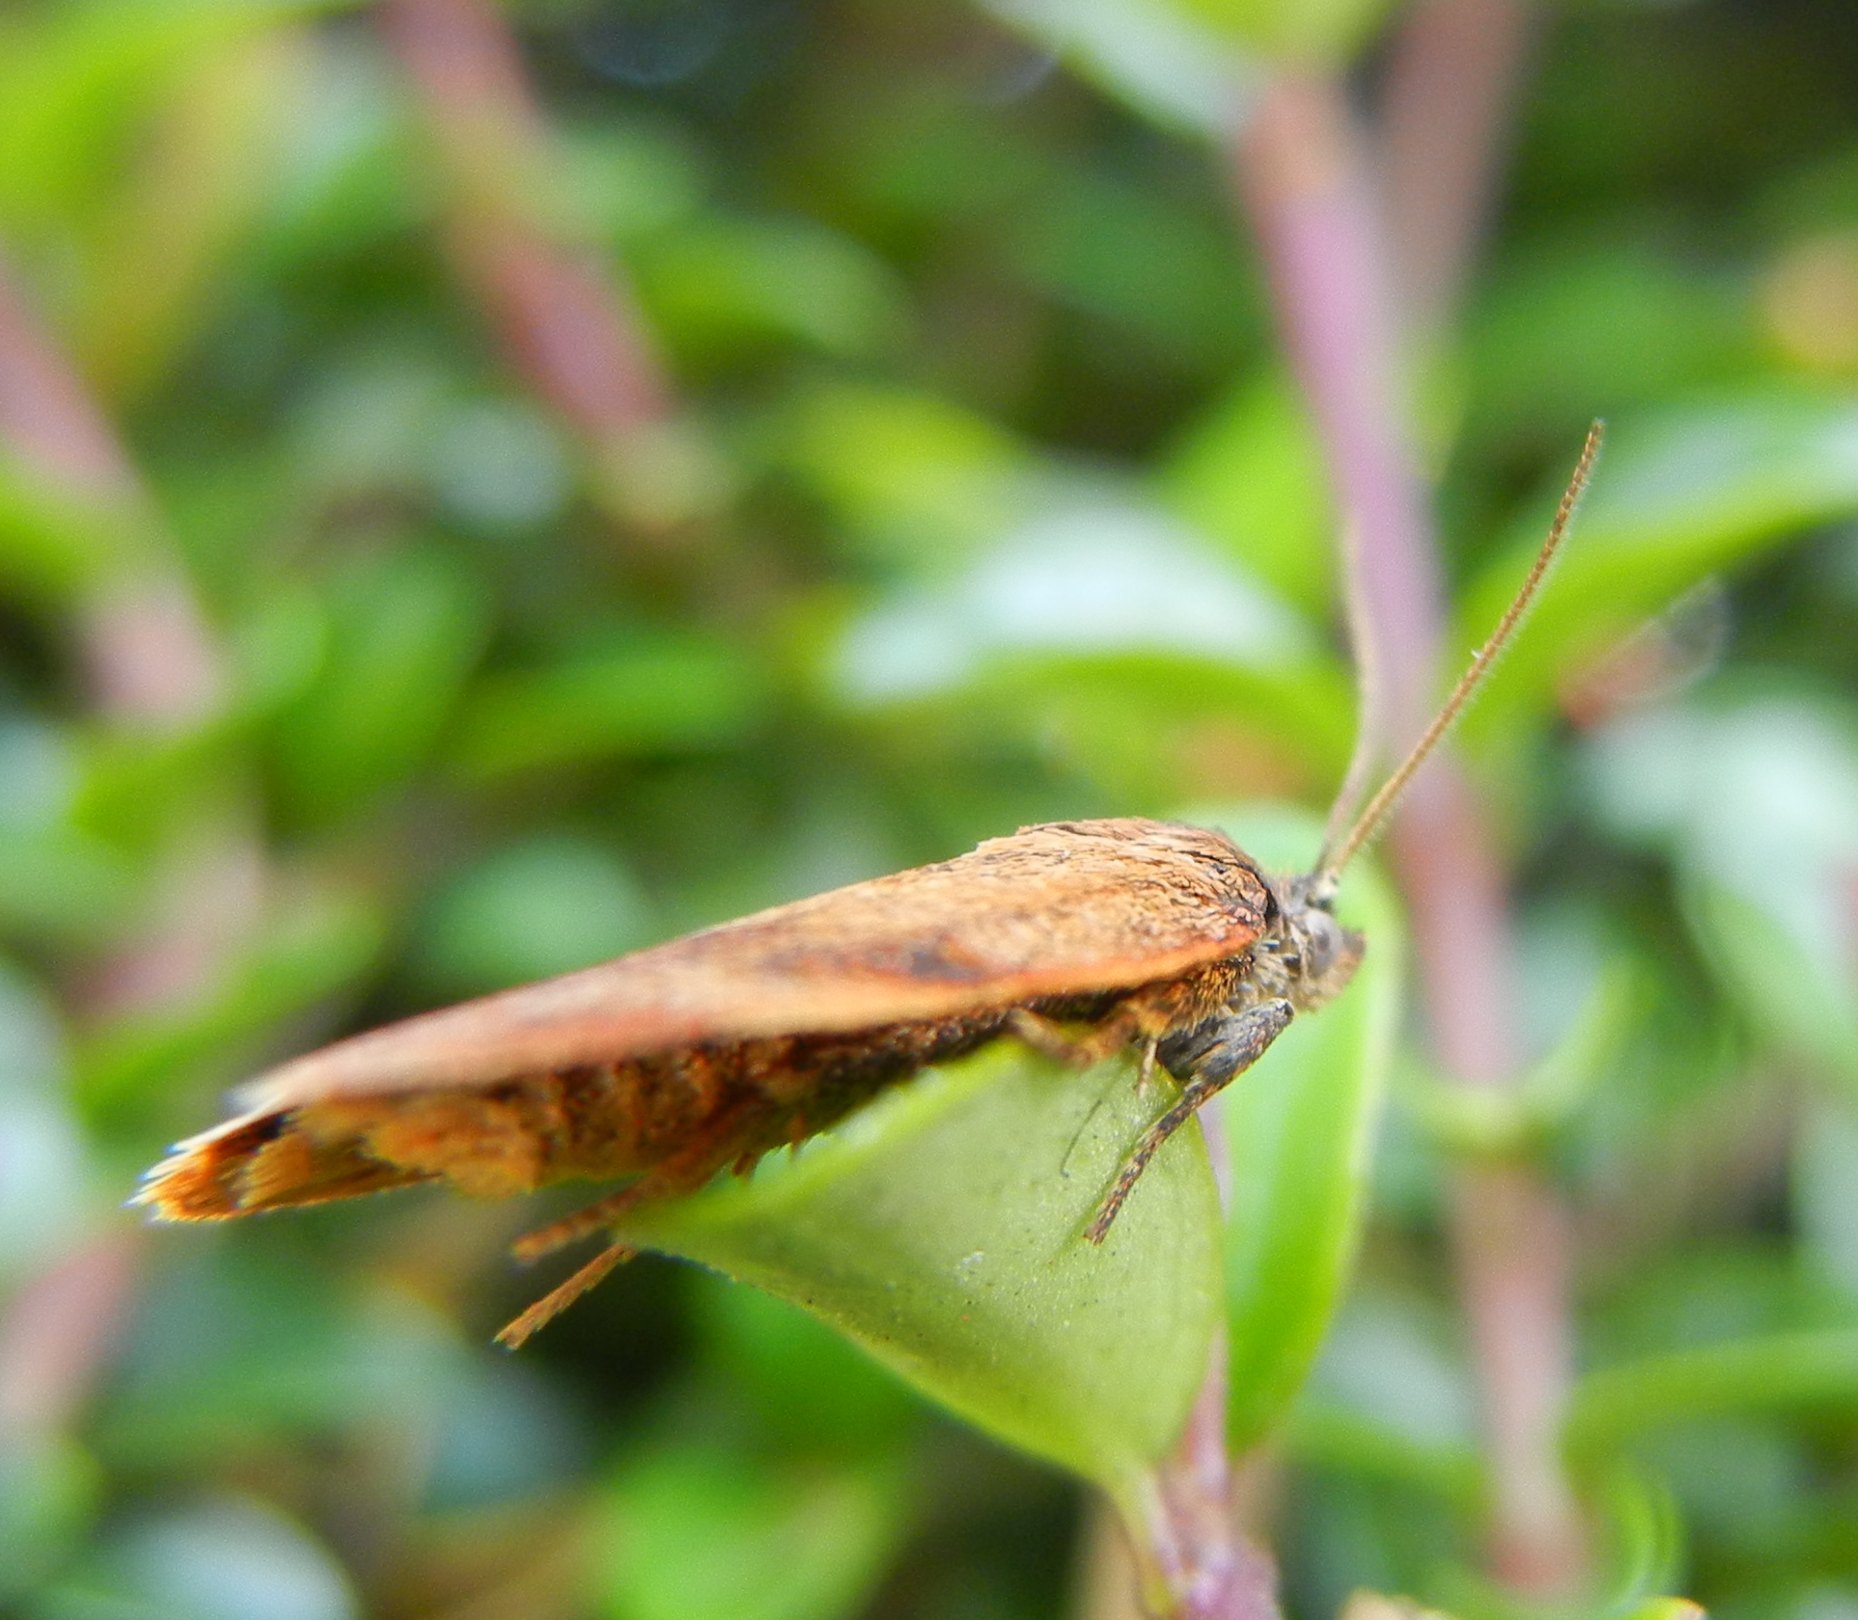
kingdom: Animalia
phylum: Arthropoda
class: Insecta
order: Lepidoptera
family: Tortricidae
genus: Epiphyas
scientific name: Epiphyas postvittana
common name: Light brown apple moth
